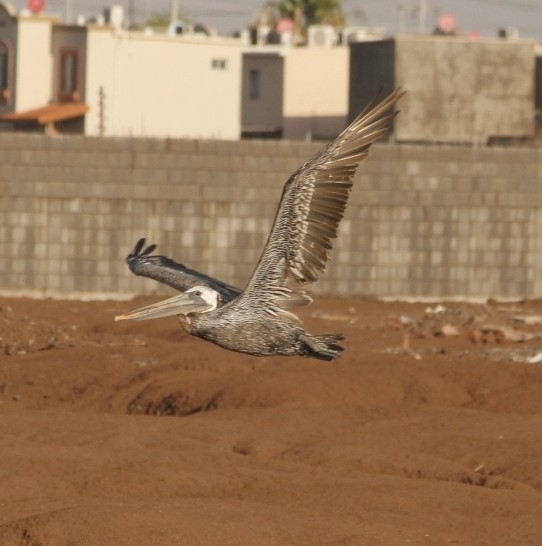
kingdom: Animalia
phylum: Chordata
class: Aves
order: Pelecaniformes
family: Pelecanidae
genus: Pelecanus
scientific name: Pelecanus occidentalis
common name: Brown pelican
